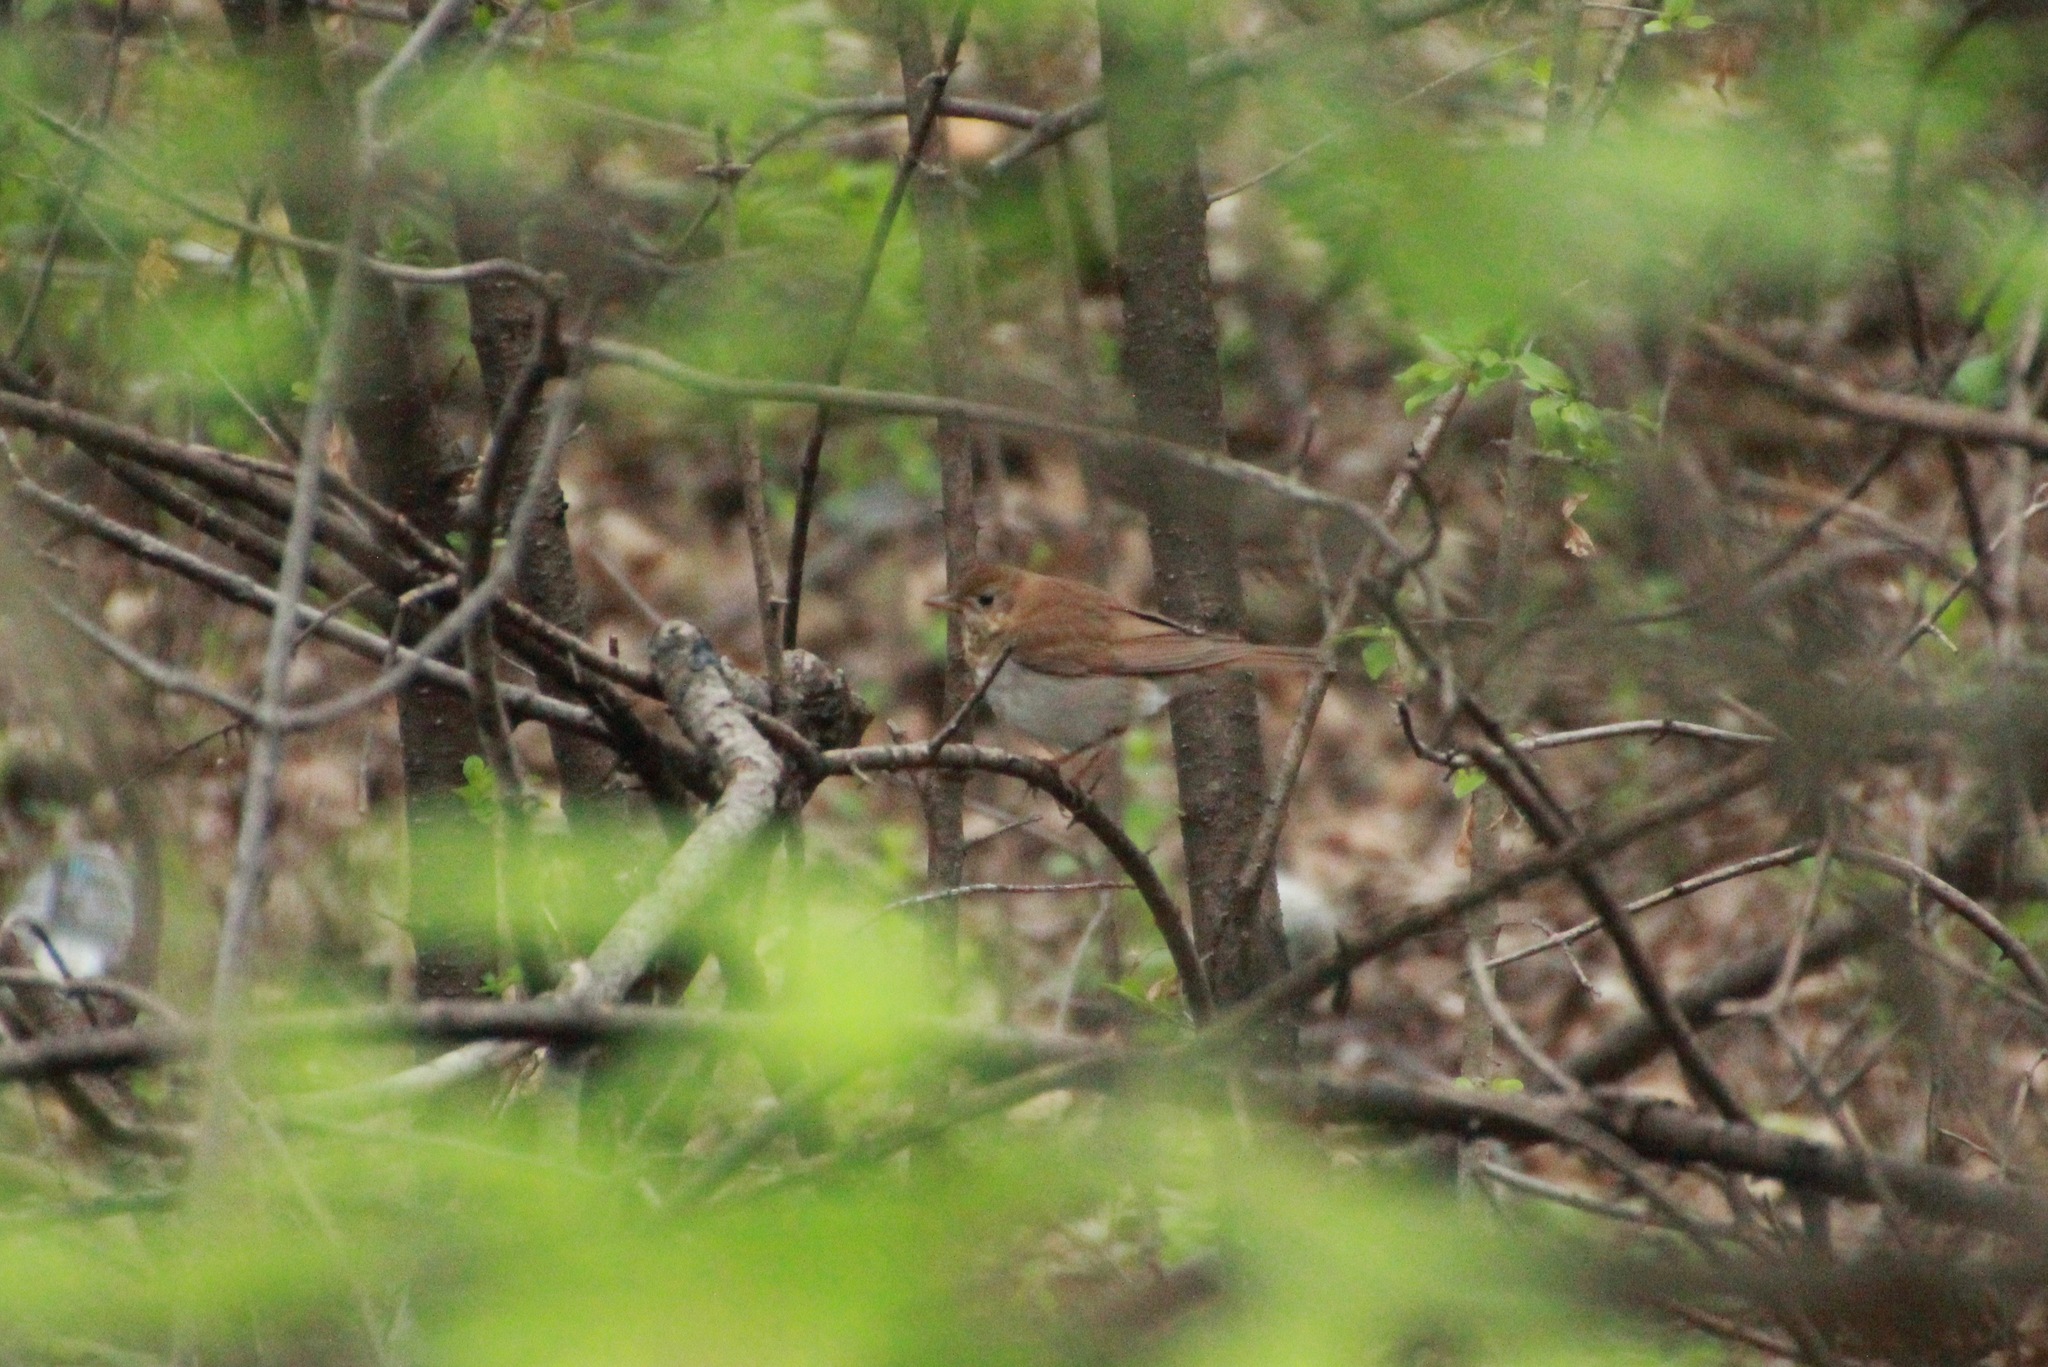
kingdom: Animalia
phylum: Chordata
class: Aves
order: Passeriformes
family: Turdidae
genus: Catharus
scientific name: Catharus fuscescens
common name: Veery
